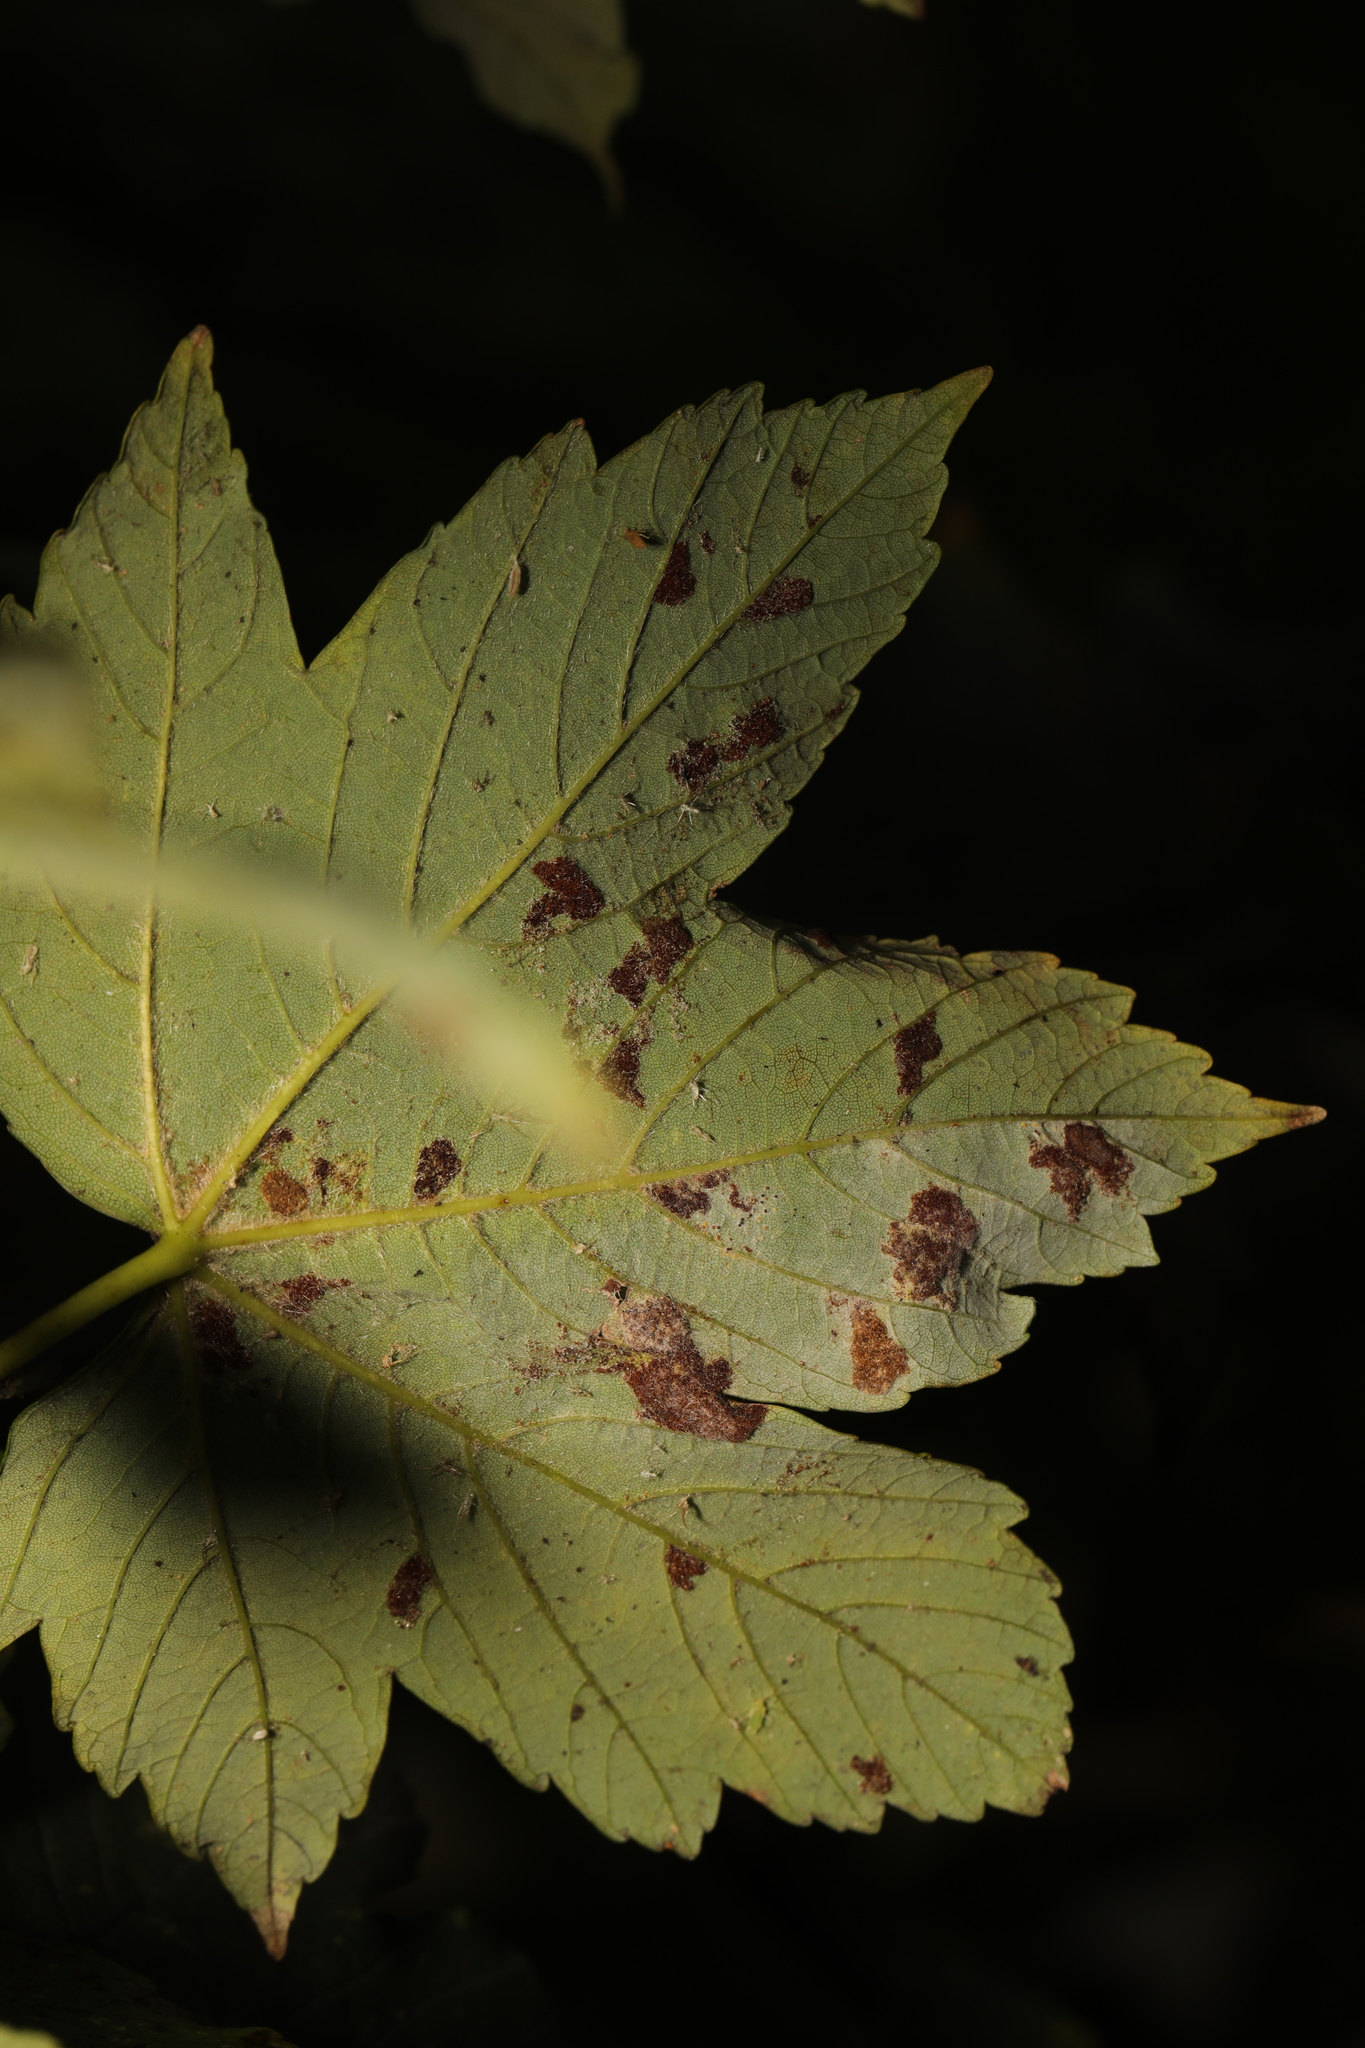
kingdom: Animalia
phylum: Arthropoda
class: Arachnida
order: Trombidiformes
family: Eriophyidae
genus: Aceria
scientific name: Aceria pseudoplatani
